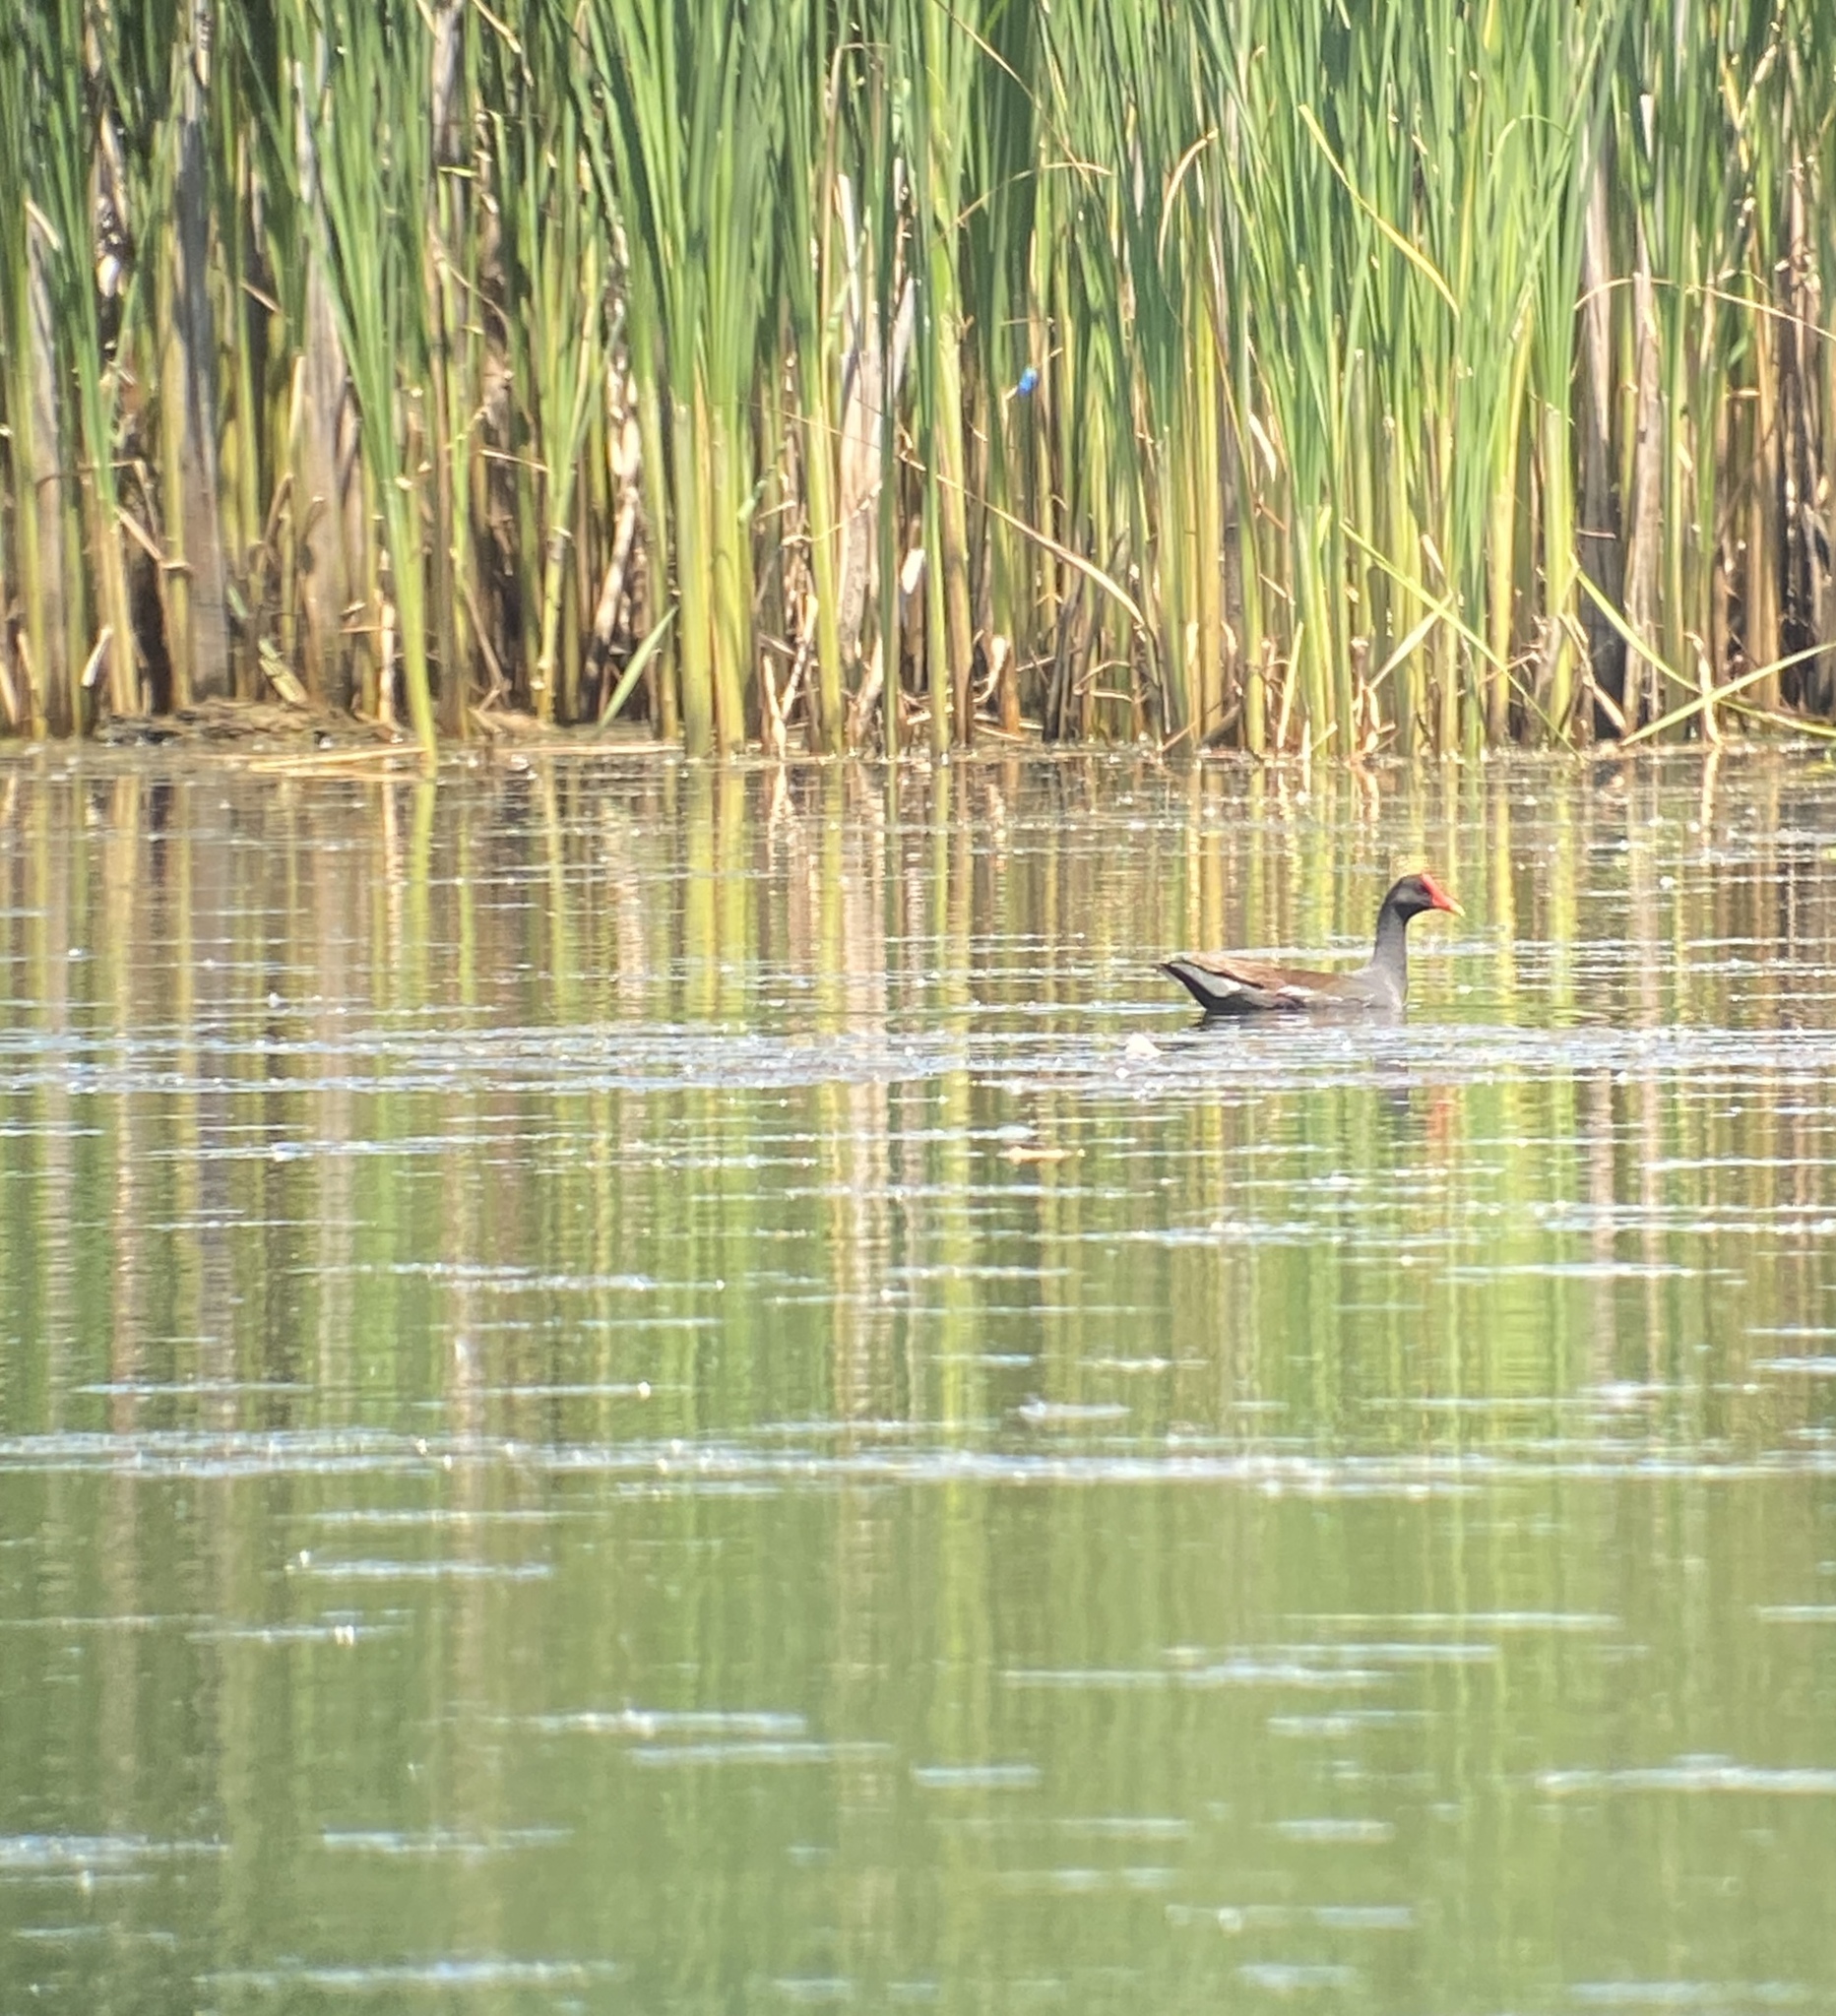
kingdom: Animalia
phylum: Chordata
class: Aves
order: Gruiformes
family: Rallidae
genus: Gallinula
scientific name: Gallinula chloropus
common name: Common moorhen
